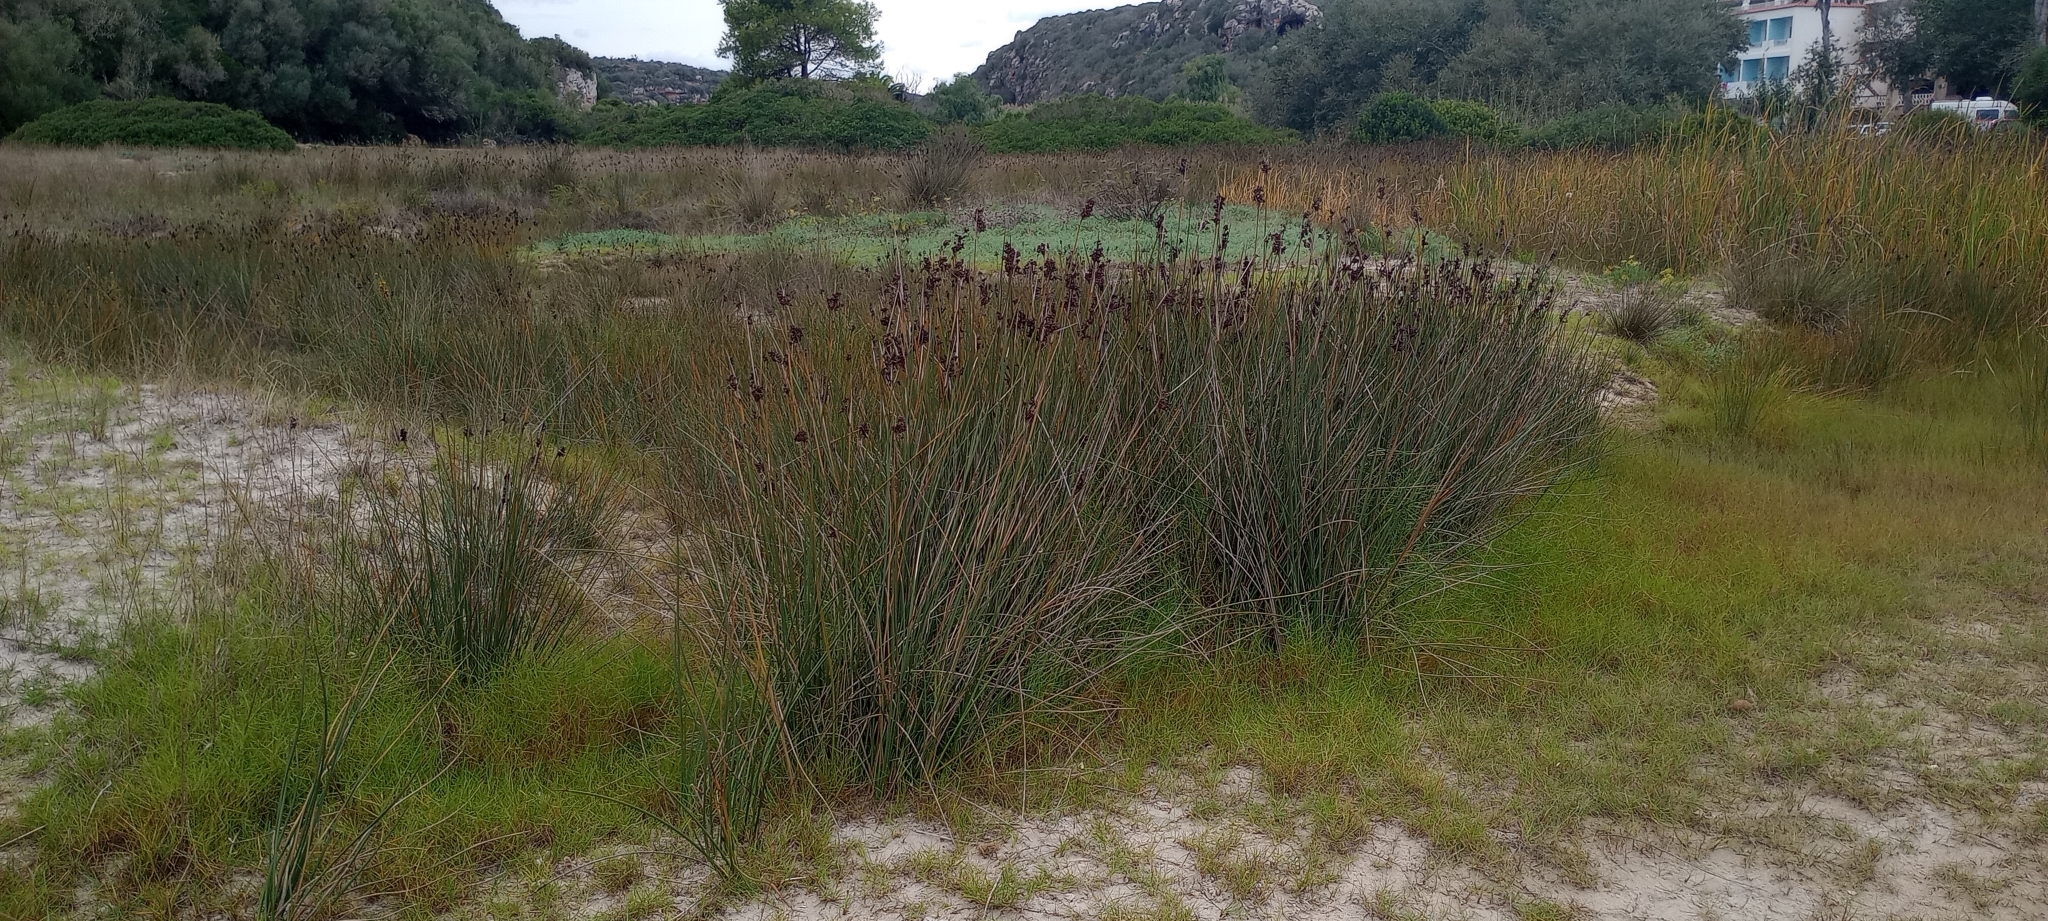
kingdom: Plantae
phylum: Tracheophyta
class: Liliopsida
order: Poales
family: Juncaceae
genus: Juncus
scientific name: Juncus acutus
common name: Sharp rush
